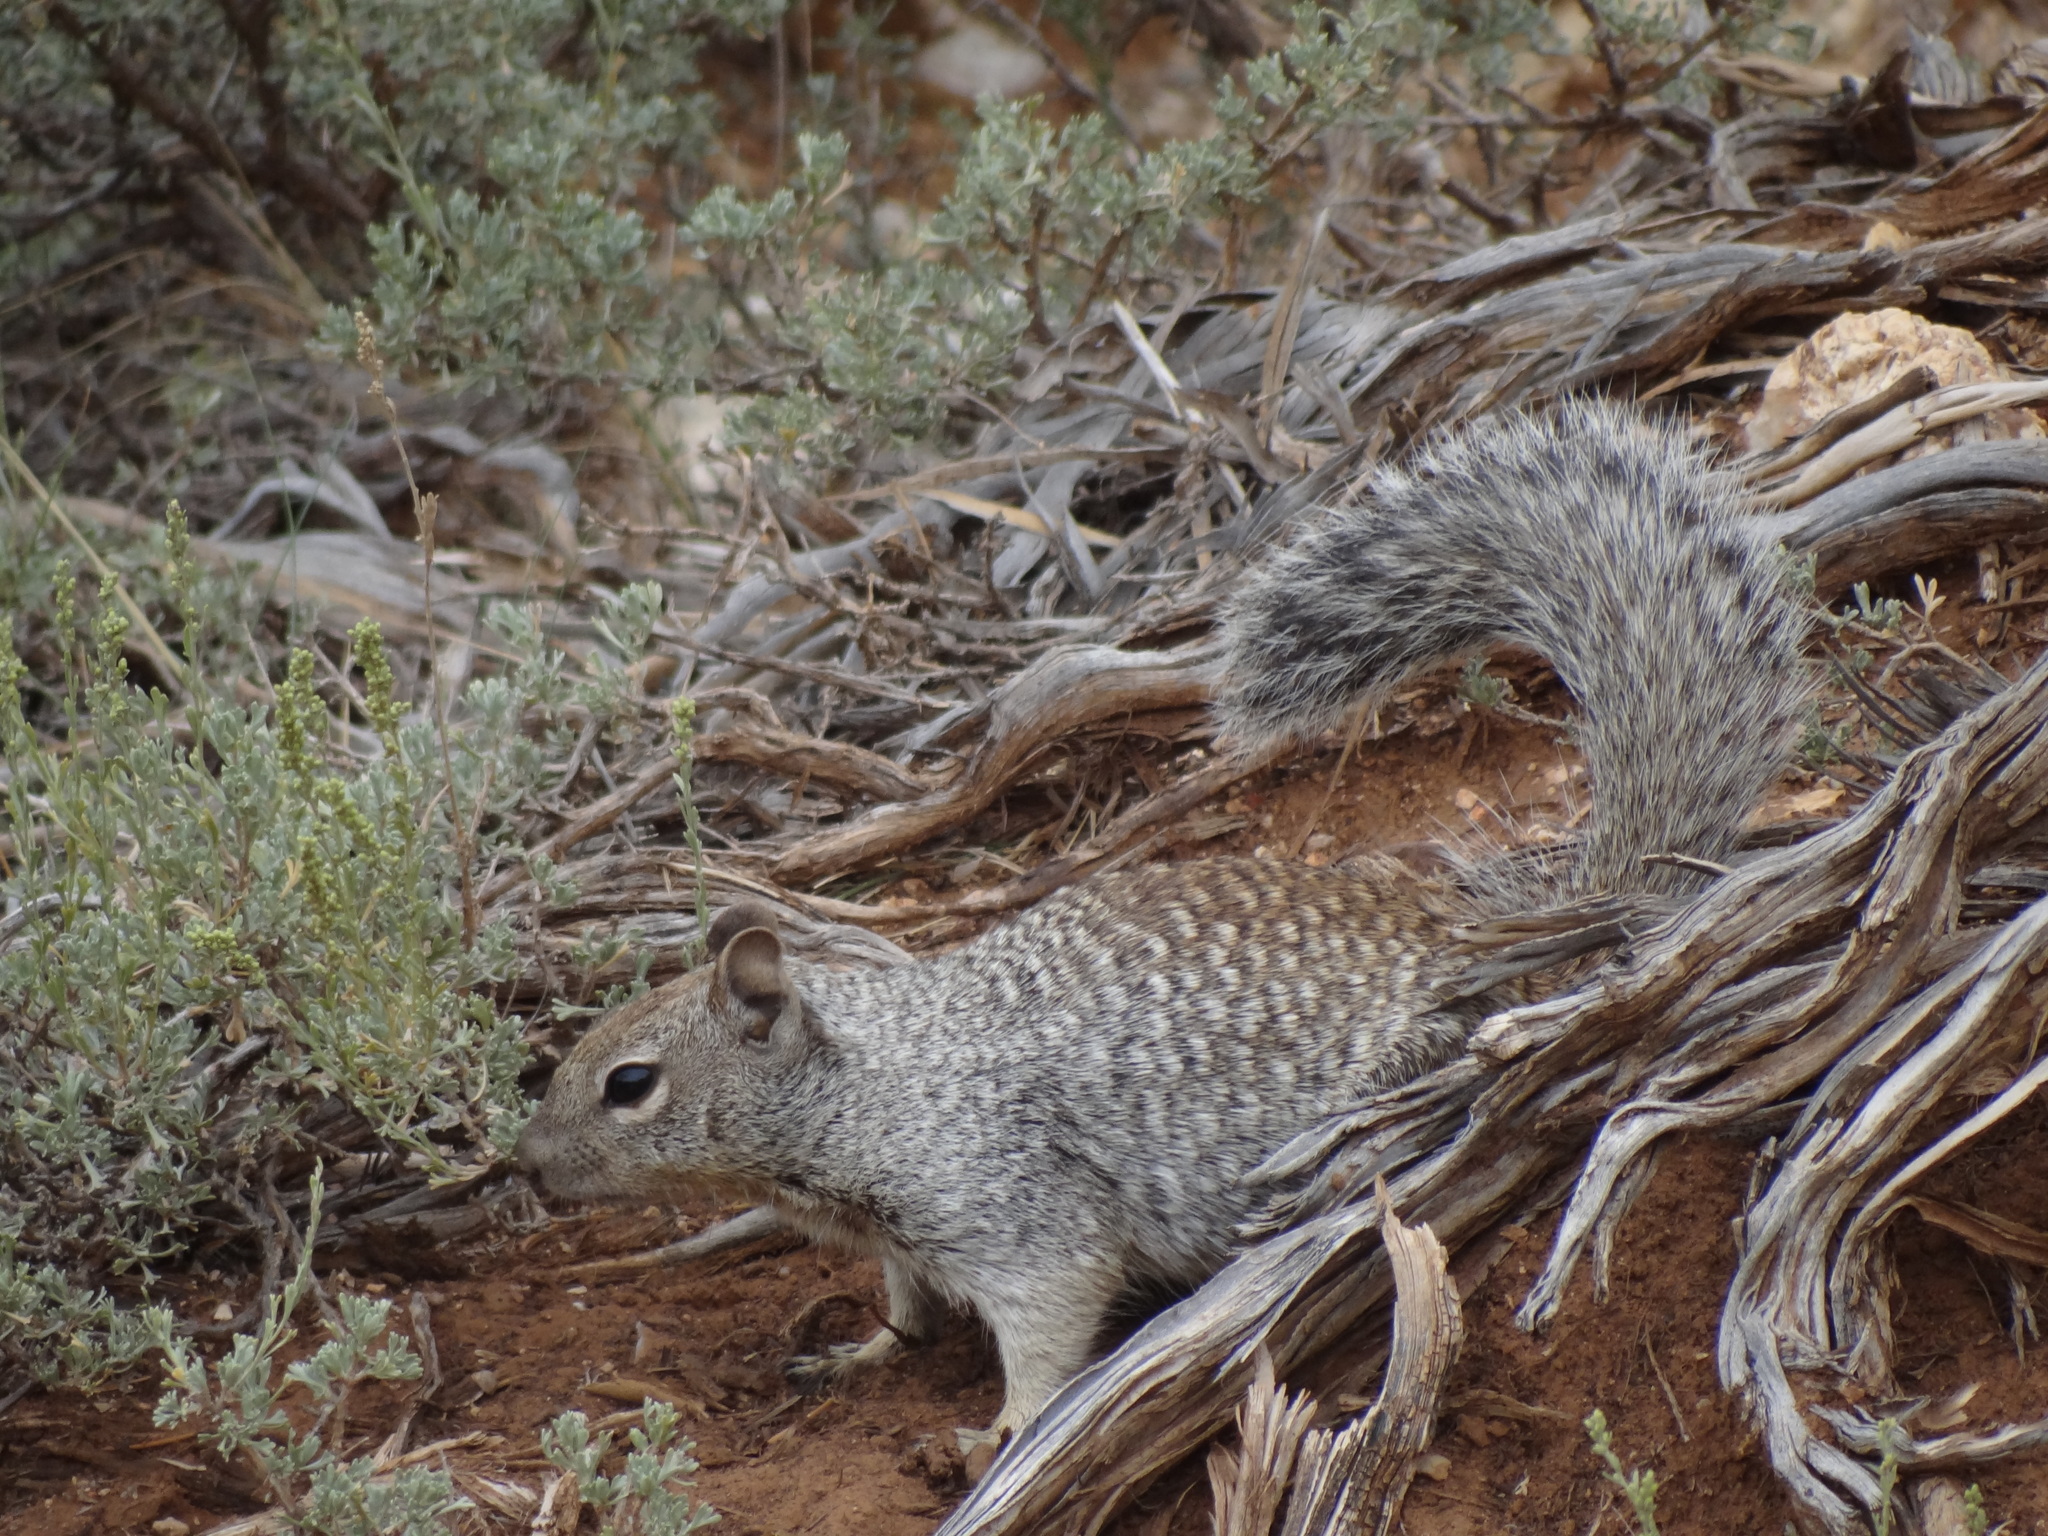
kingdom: Animalia
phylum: Chordata
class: Mammalia
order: Rodentia
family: Sciuridae
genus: Otospermophilus
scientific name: Otospermophilus variegatus
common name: Rock squirrel
